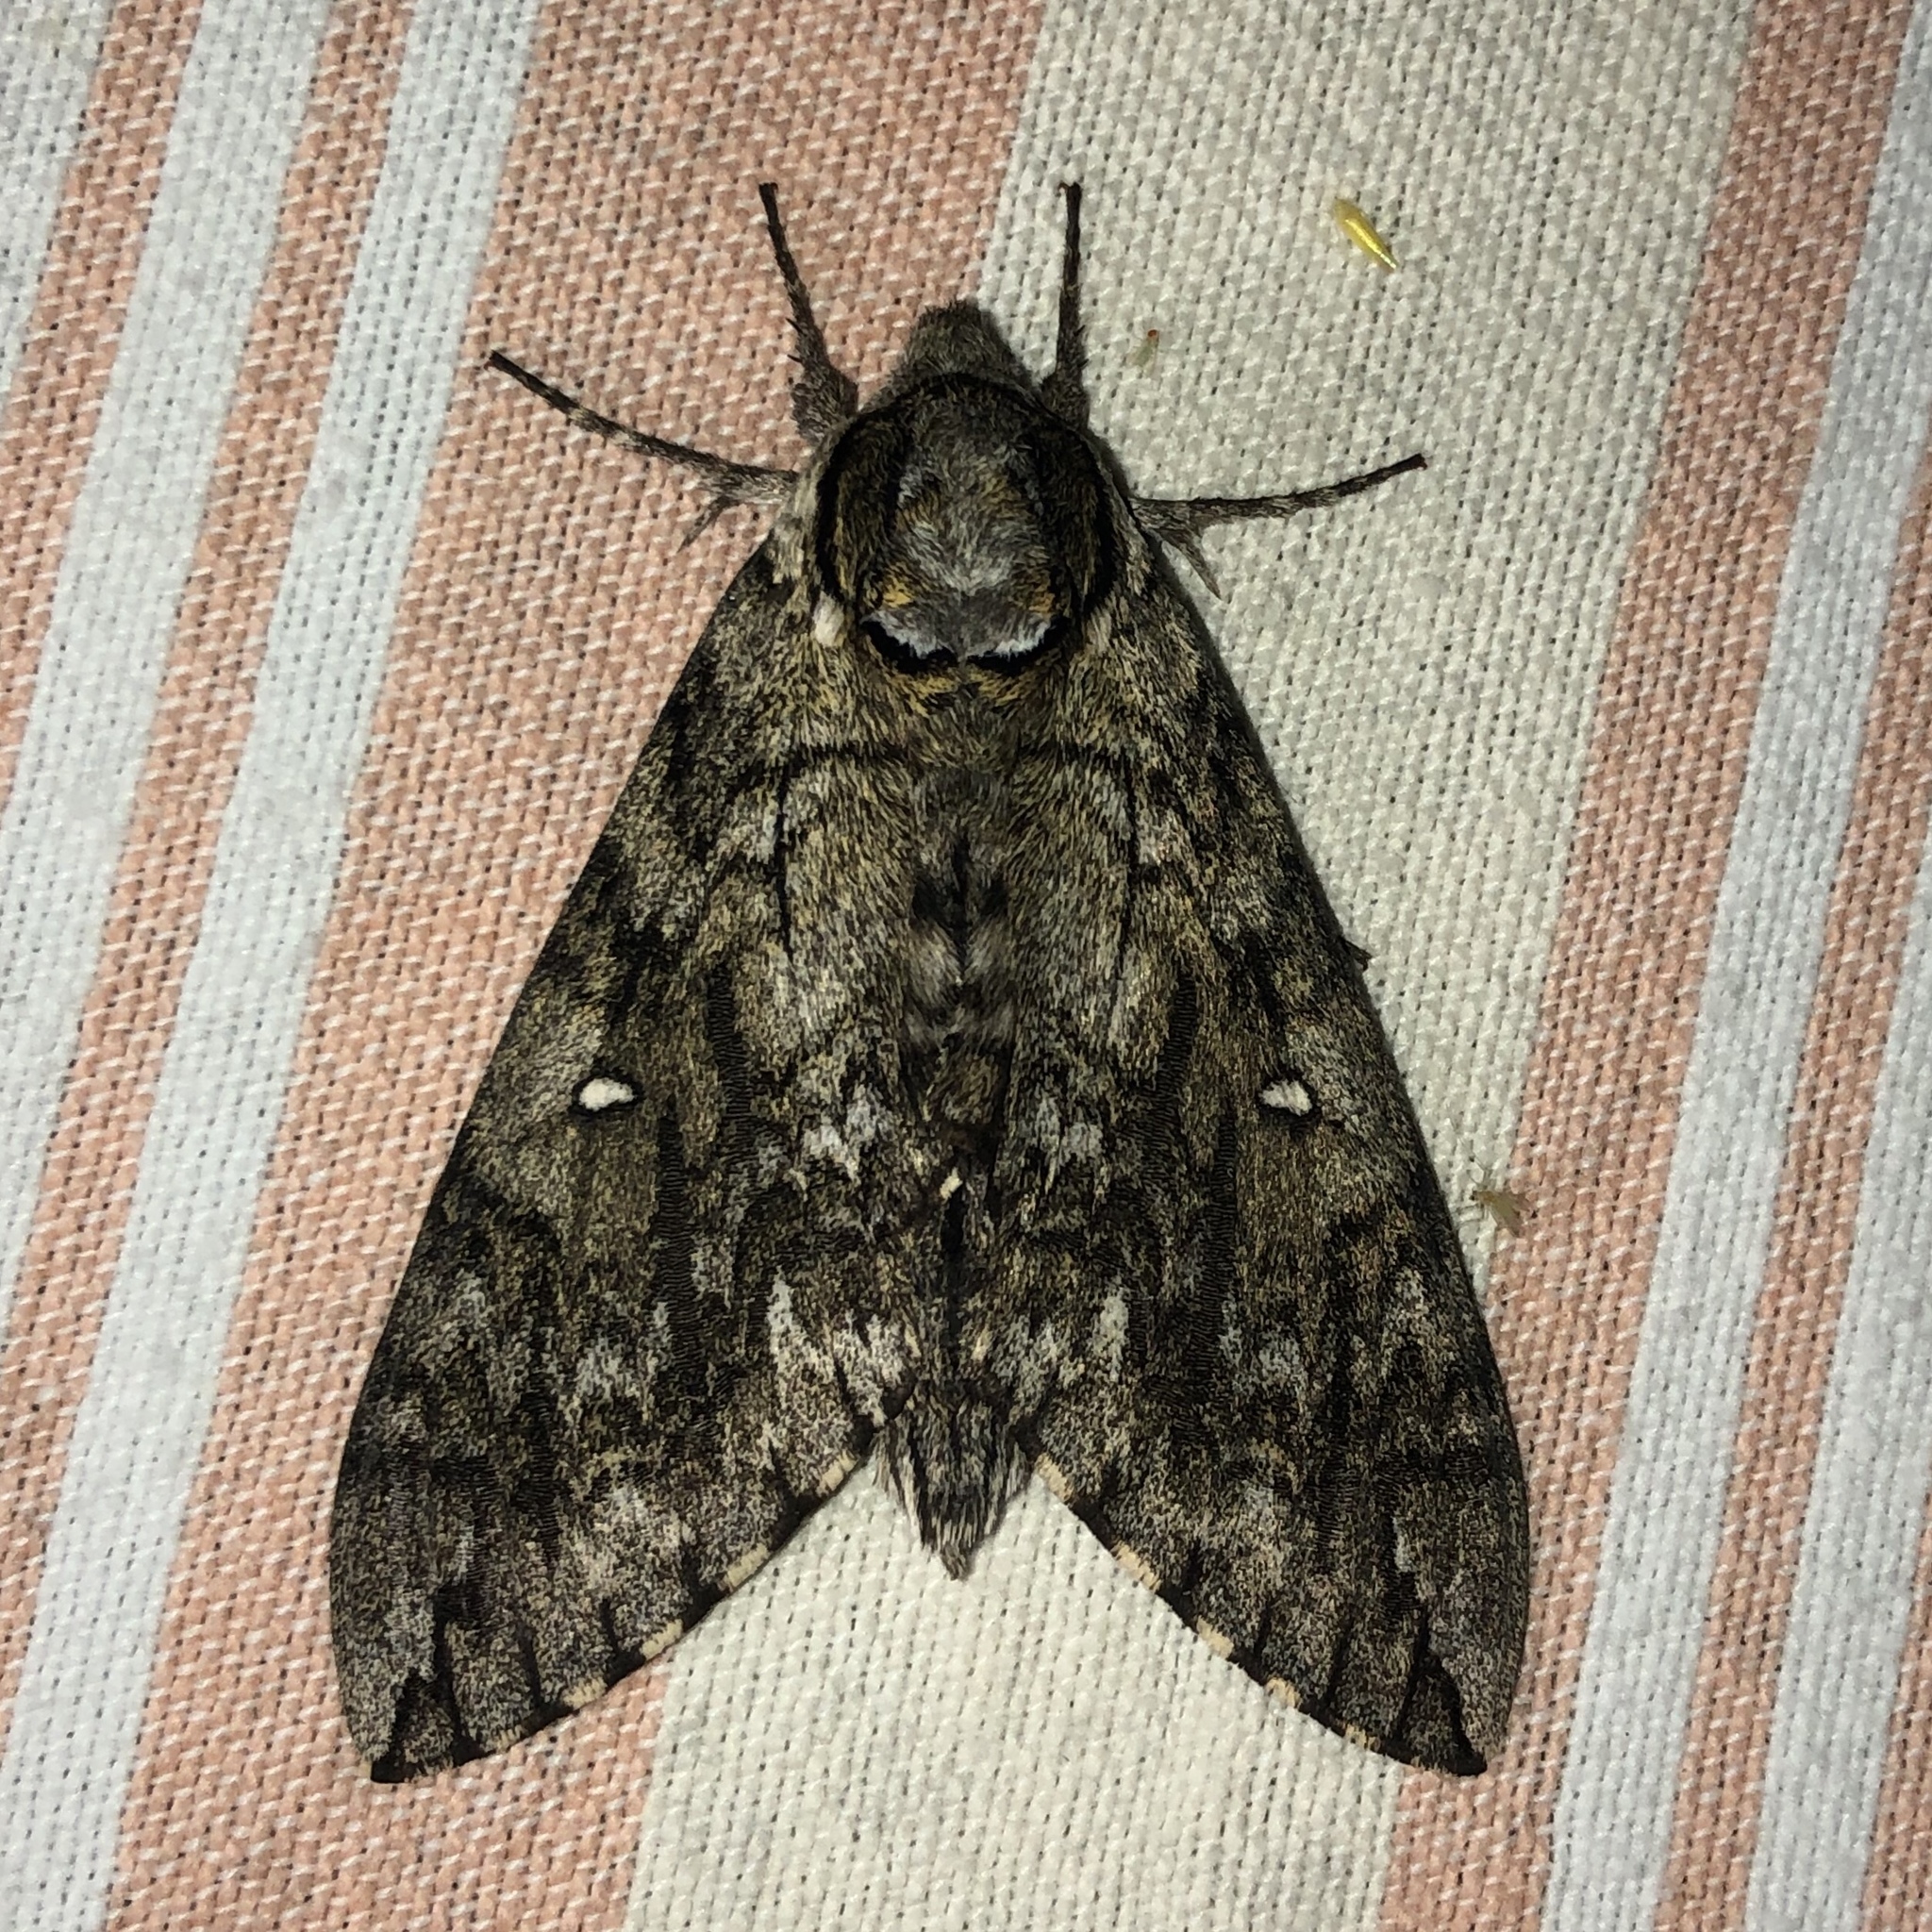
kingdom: Animalia
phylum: Arthropoda
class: Insecta
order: Lepidoptera
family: Sphingidae
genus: Ceratomia
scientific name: Ceratomia undulosa
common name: Waved sphinx
